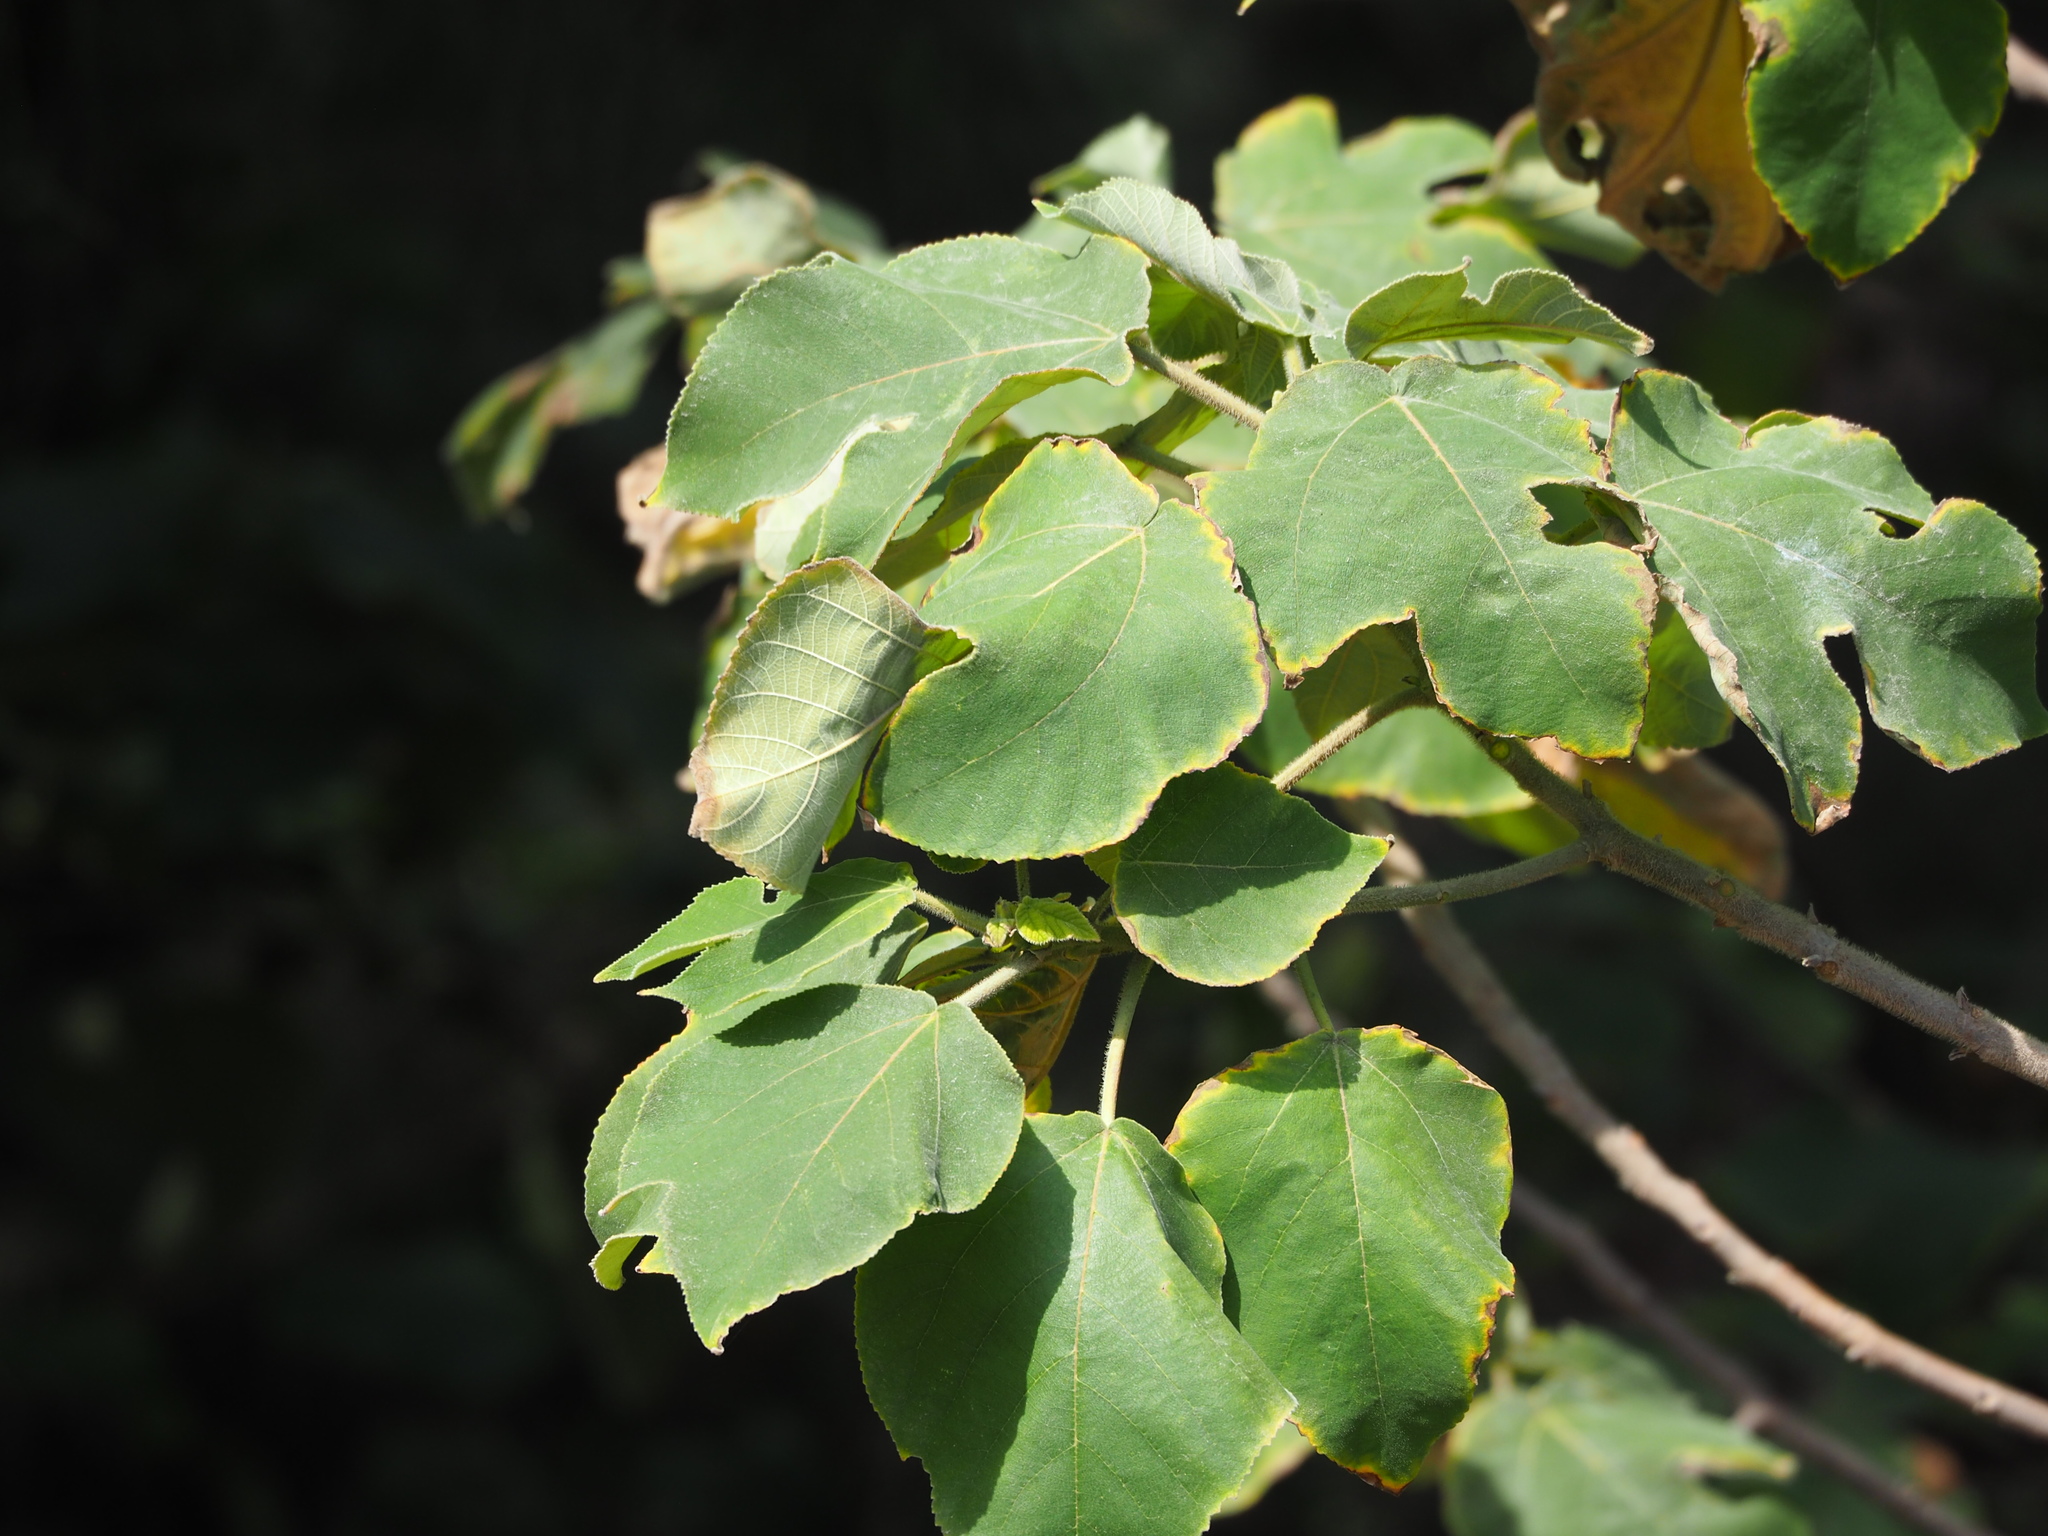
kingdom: Plantae
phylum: Tracheophyta
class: Magnoliopsida
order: Rosales
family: Moraceae
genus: Broussonetia
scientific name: Broussonetia papyrifera
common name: Paper mulberry
